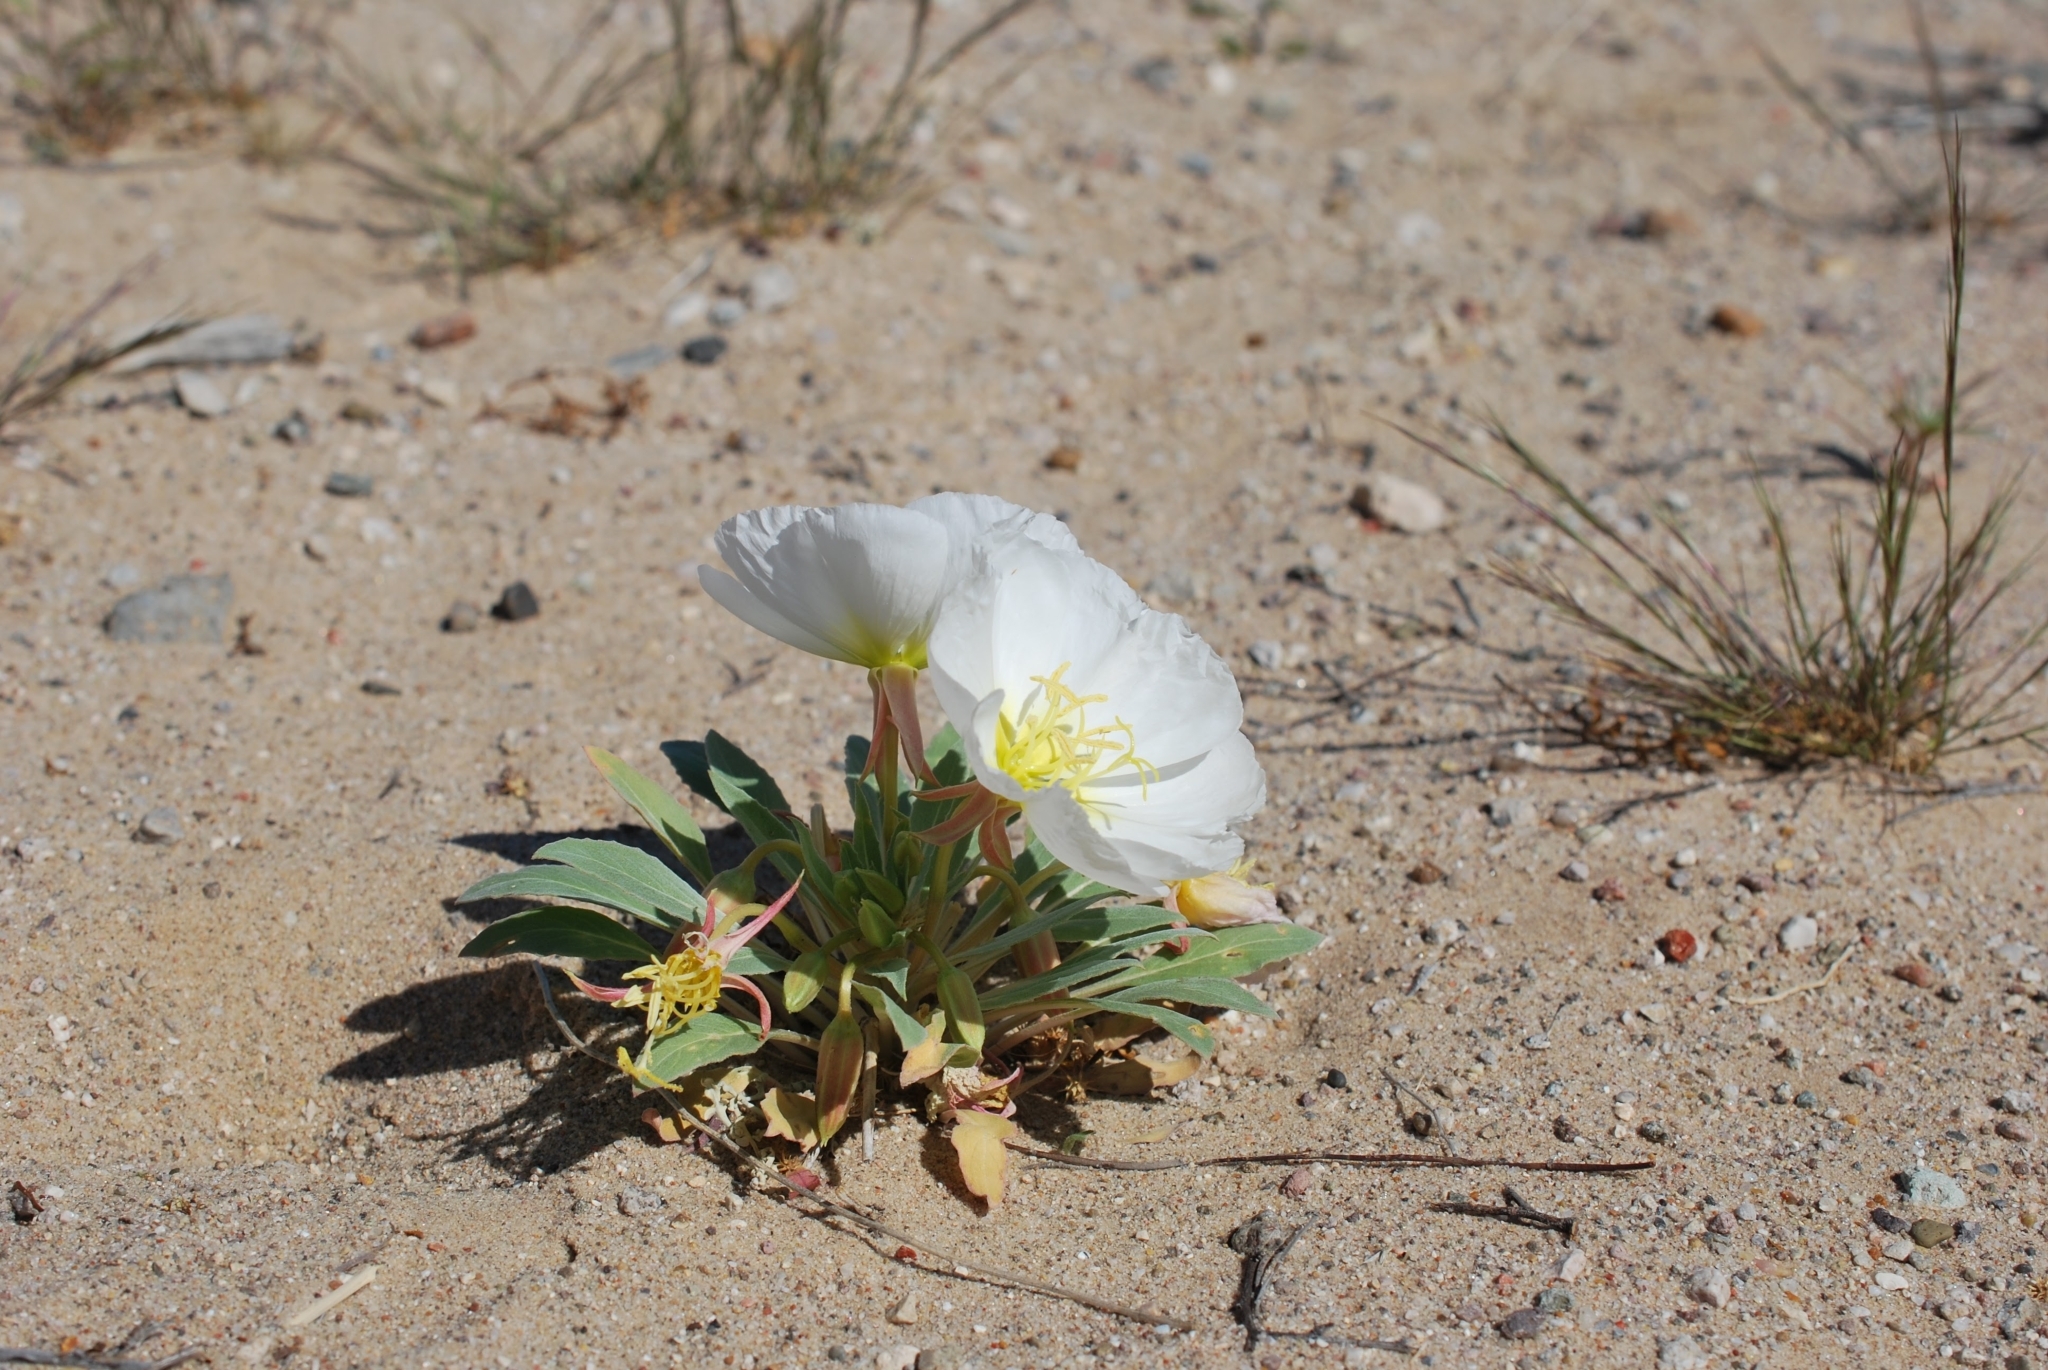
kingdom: Plantae
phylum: Tracheophyta
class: Magnoliopsida
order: Myrtales
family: Onagraceae
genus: Oenothera
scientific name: Oenothera deltoides
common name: Basket evening-primrose
